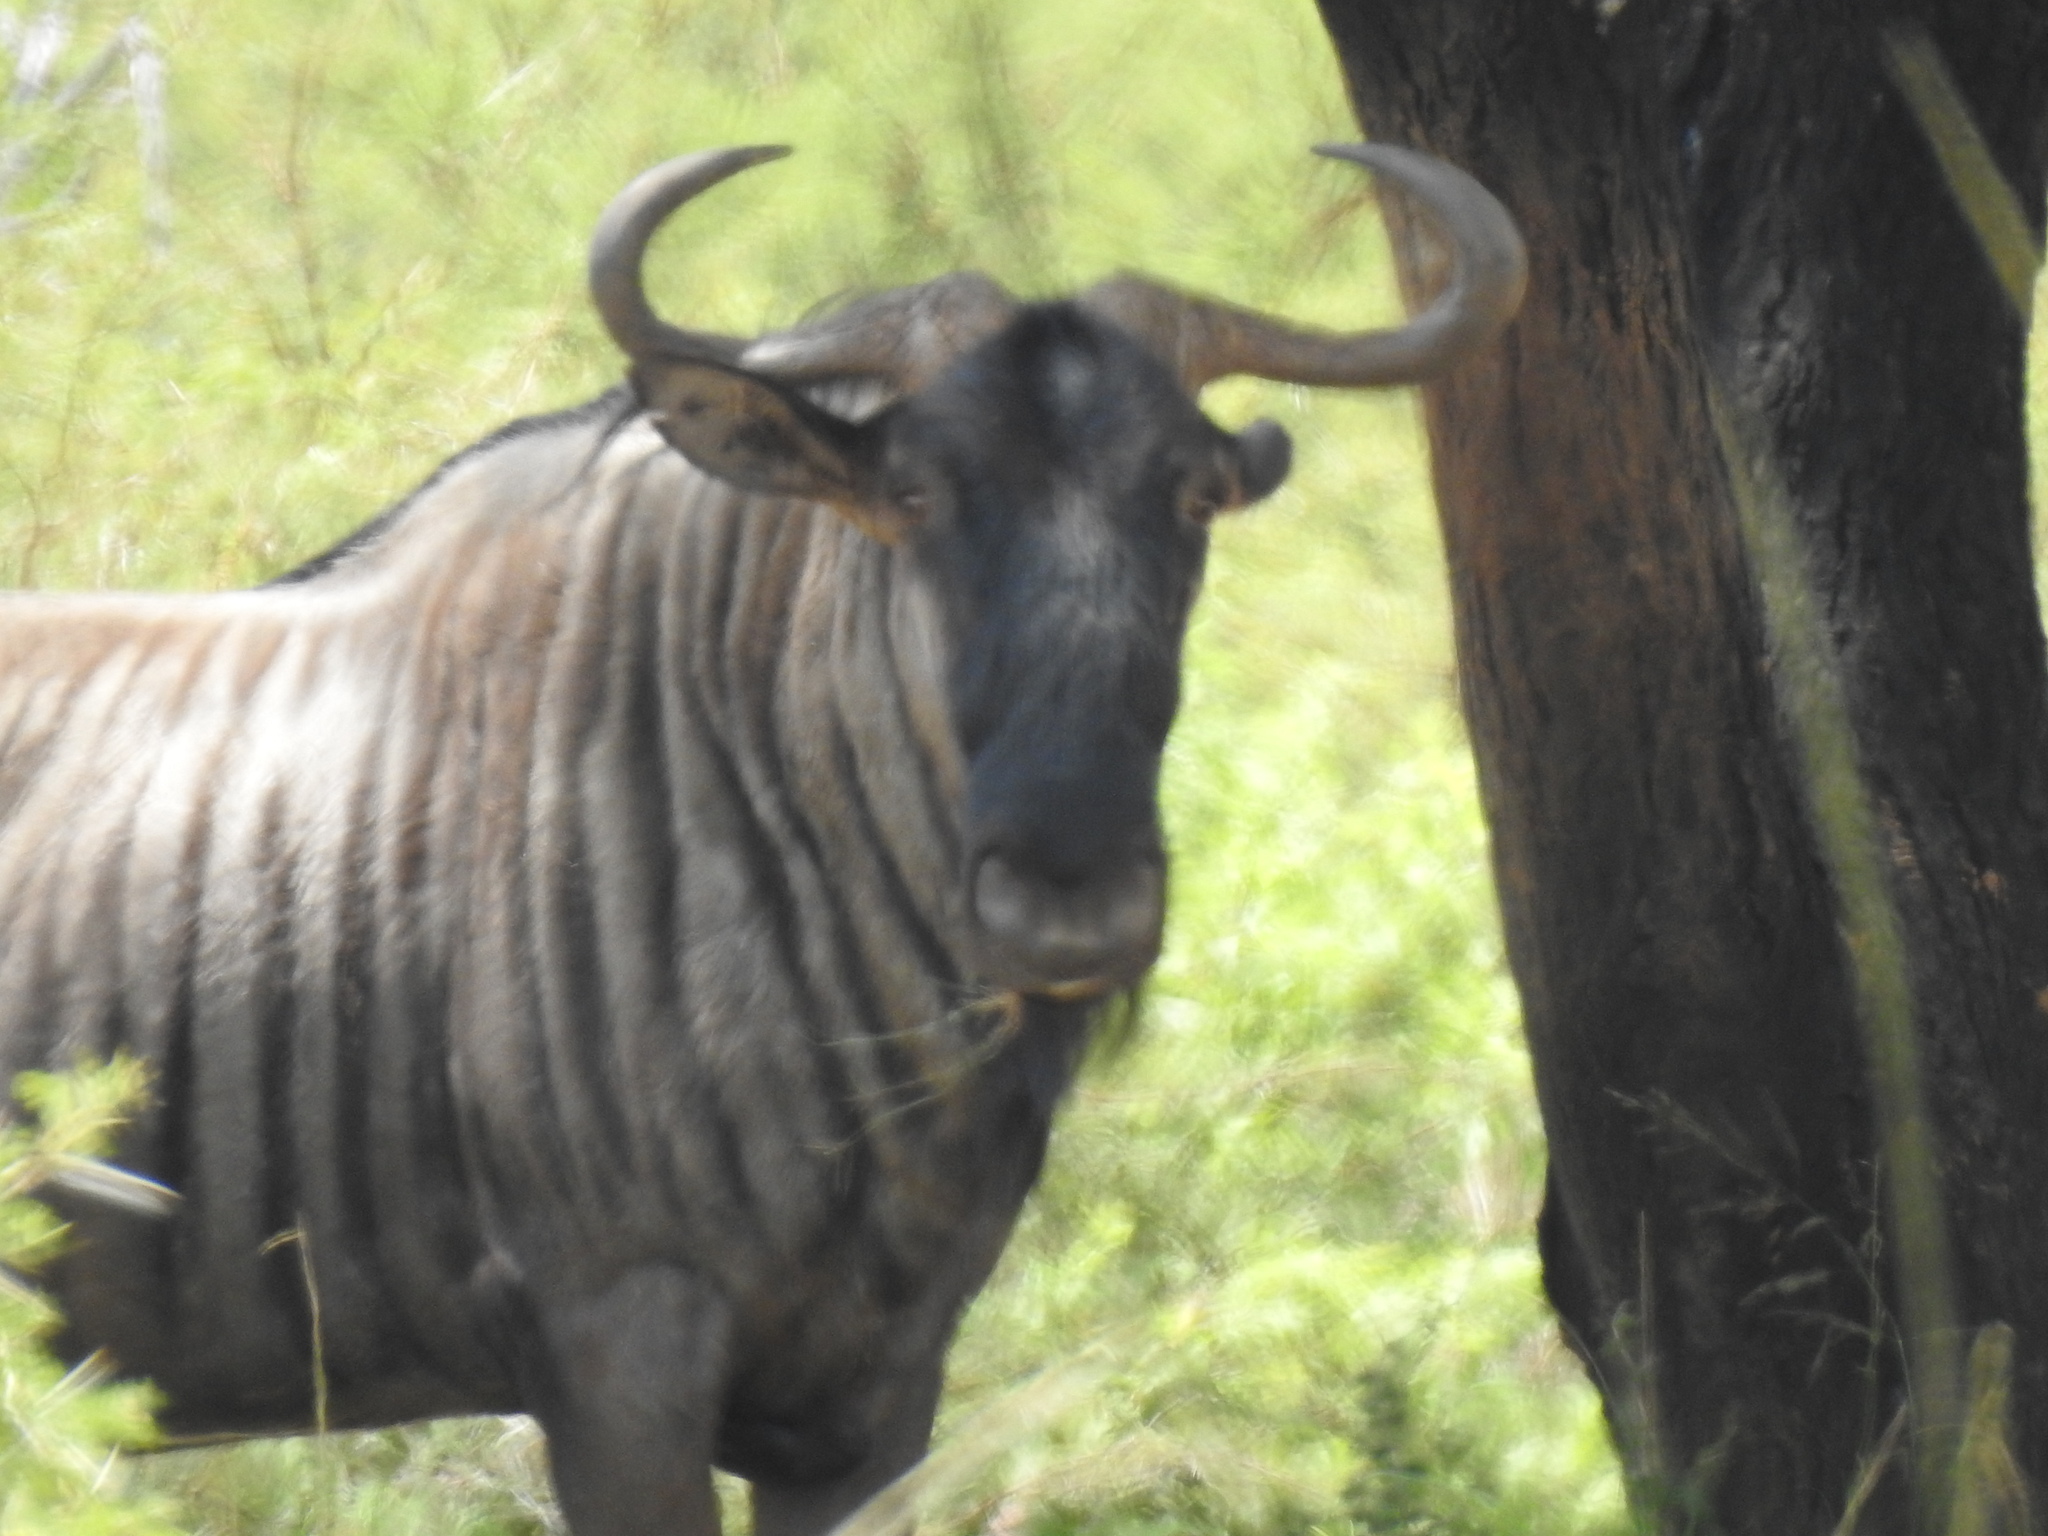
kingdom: Animalia
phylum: Chordata
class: Mammalia
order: Artiodactyla
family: Bovidae
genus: Connochaetes
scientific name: Connochaetes taurinus
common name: Blue wildebeest
